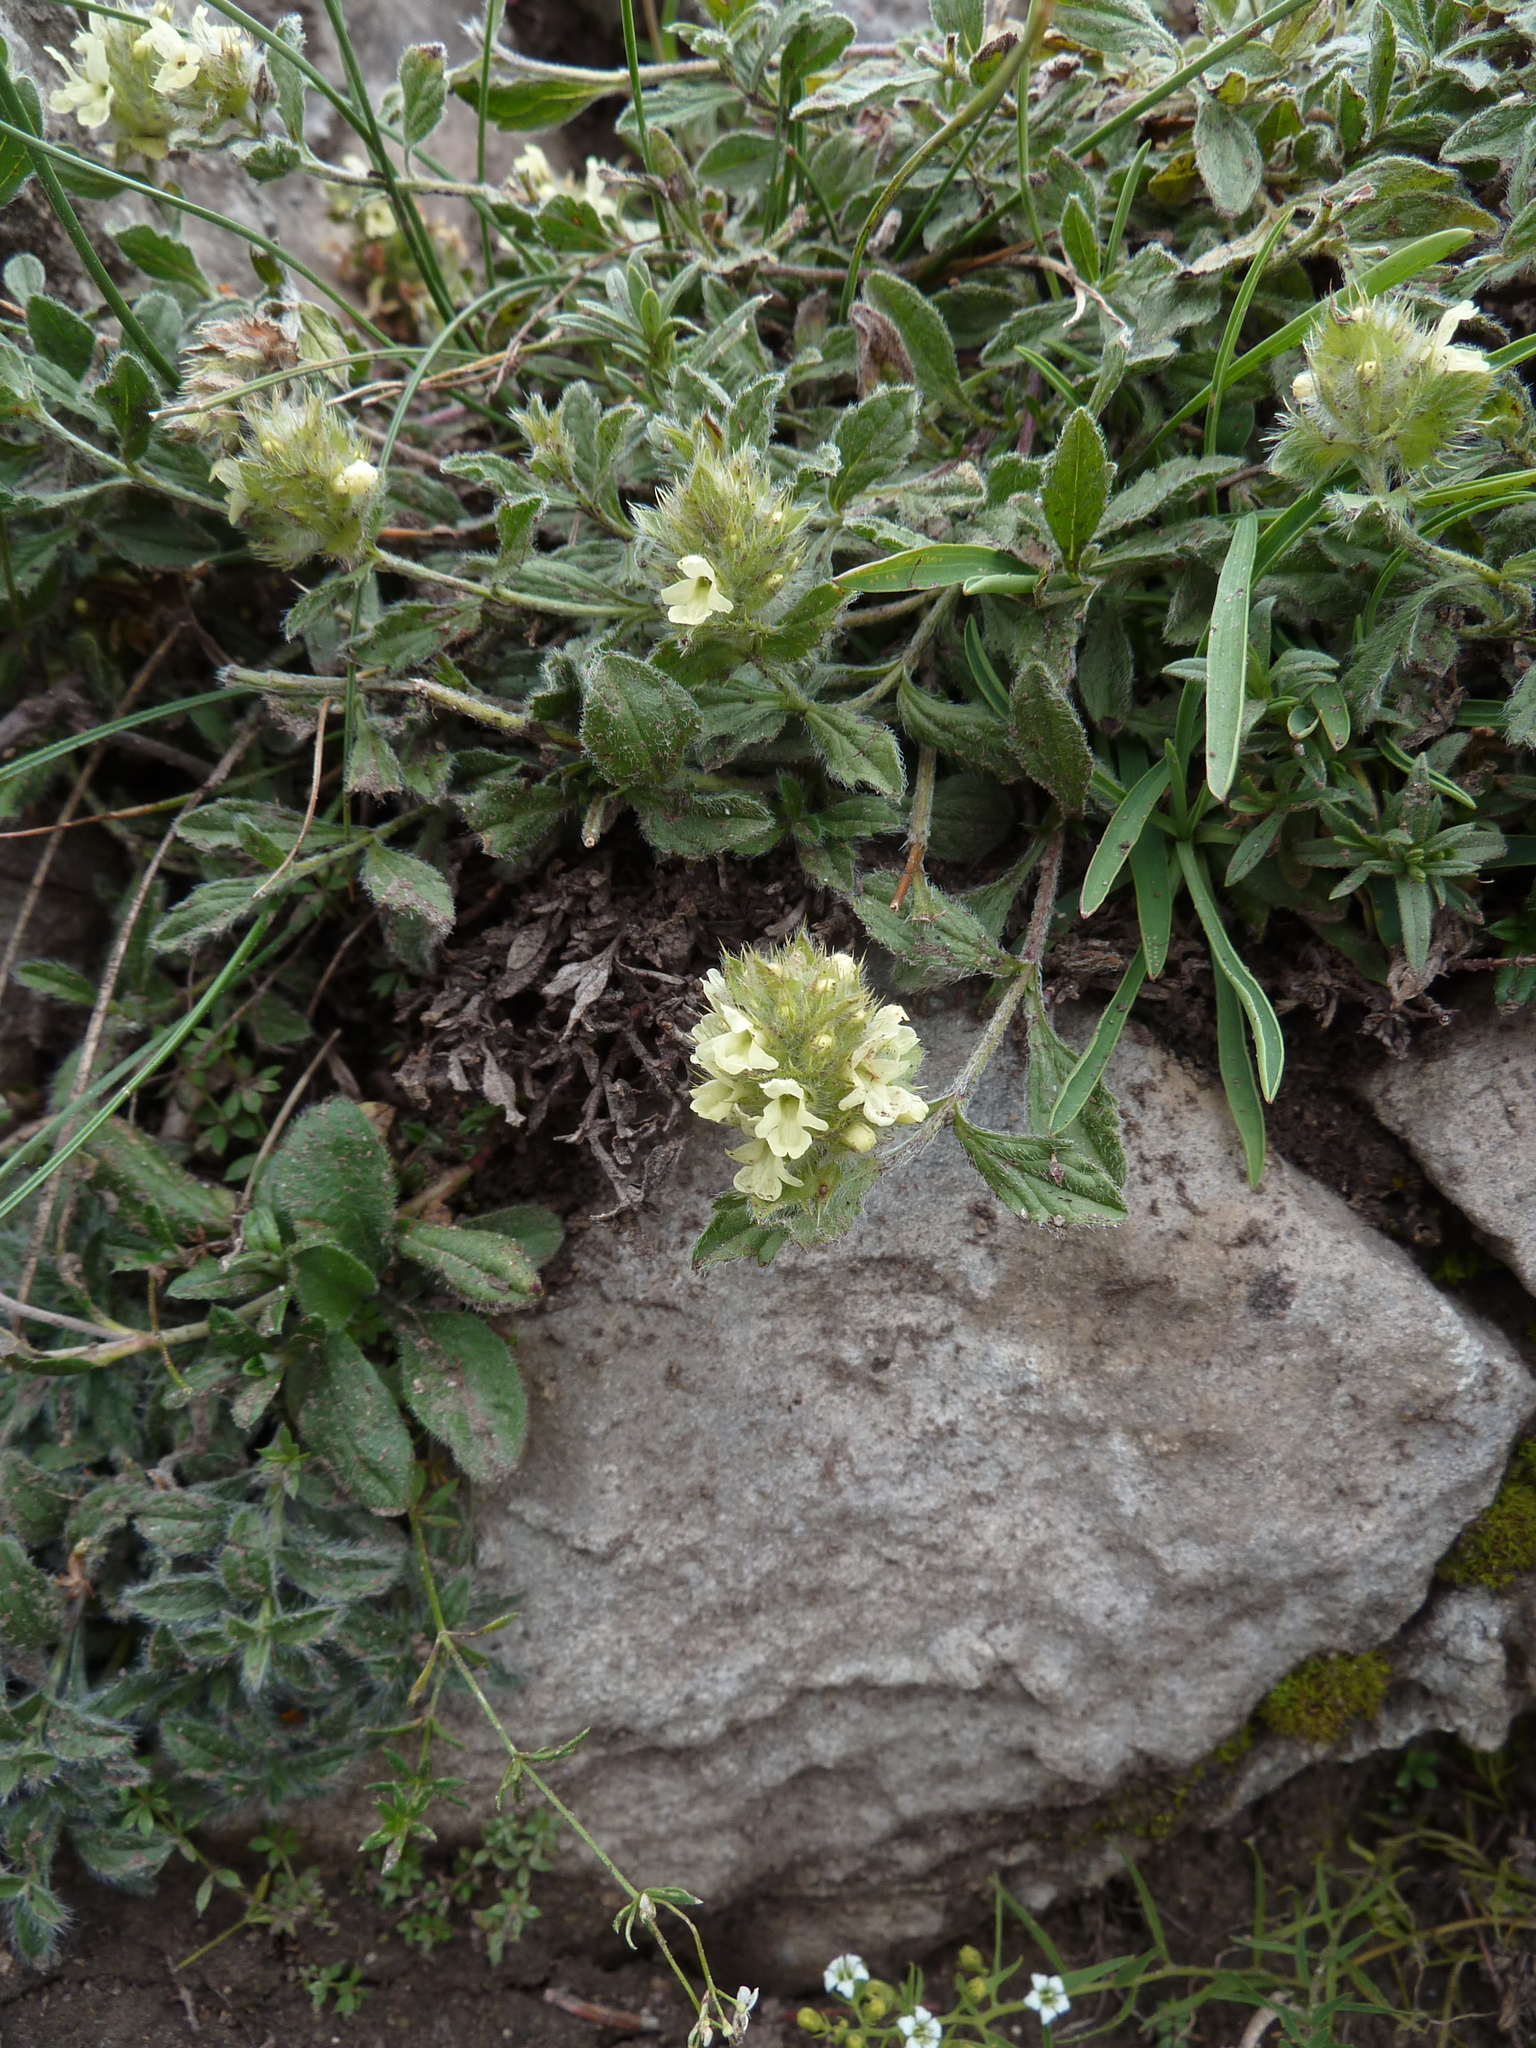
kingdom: Plantae
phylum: Tracheophyta
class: Magnoliopsida
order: Lamiales
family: Lamiaceae
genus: Sideritis
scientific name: Sideritis hyssopifolia
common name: Mountain tea
